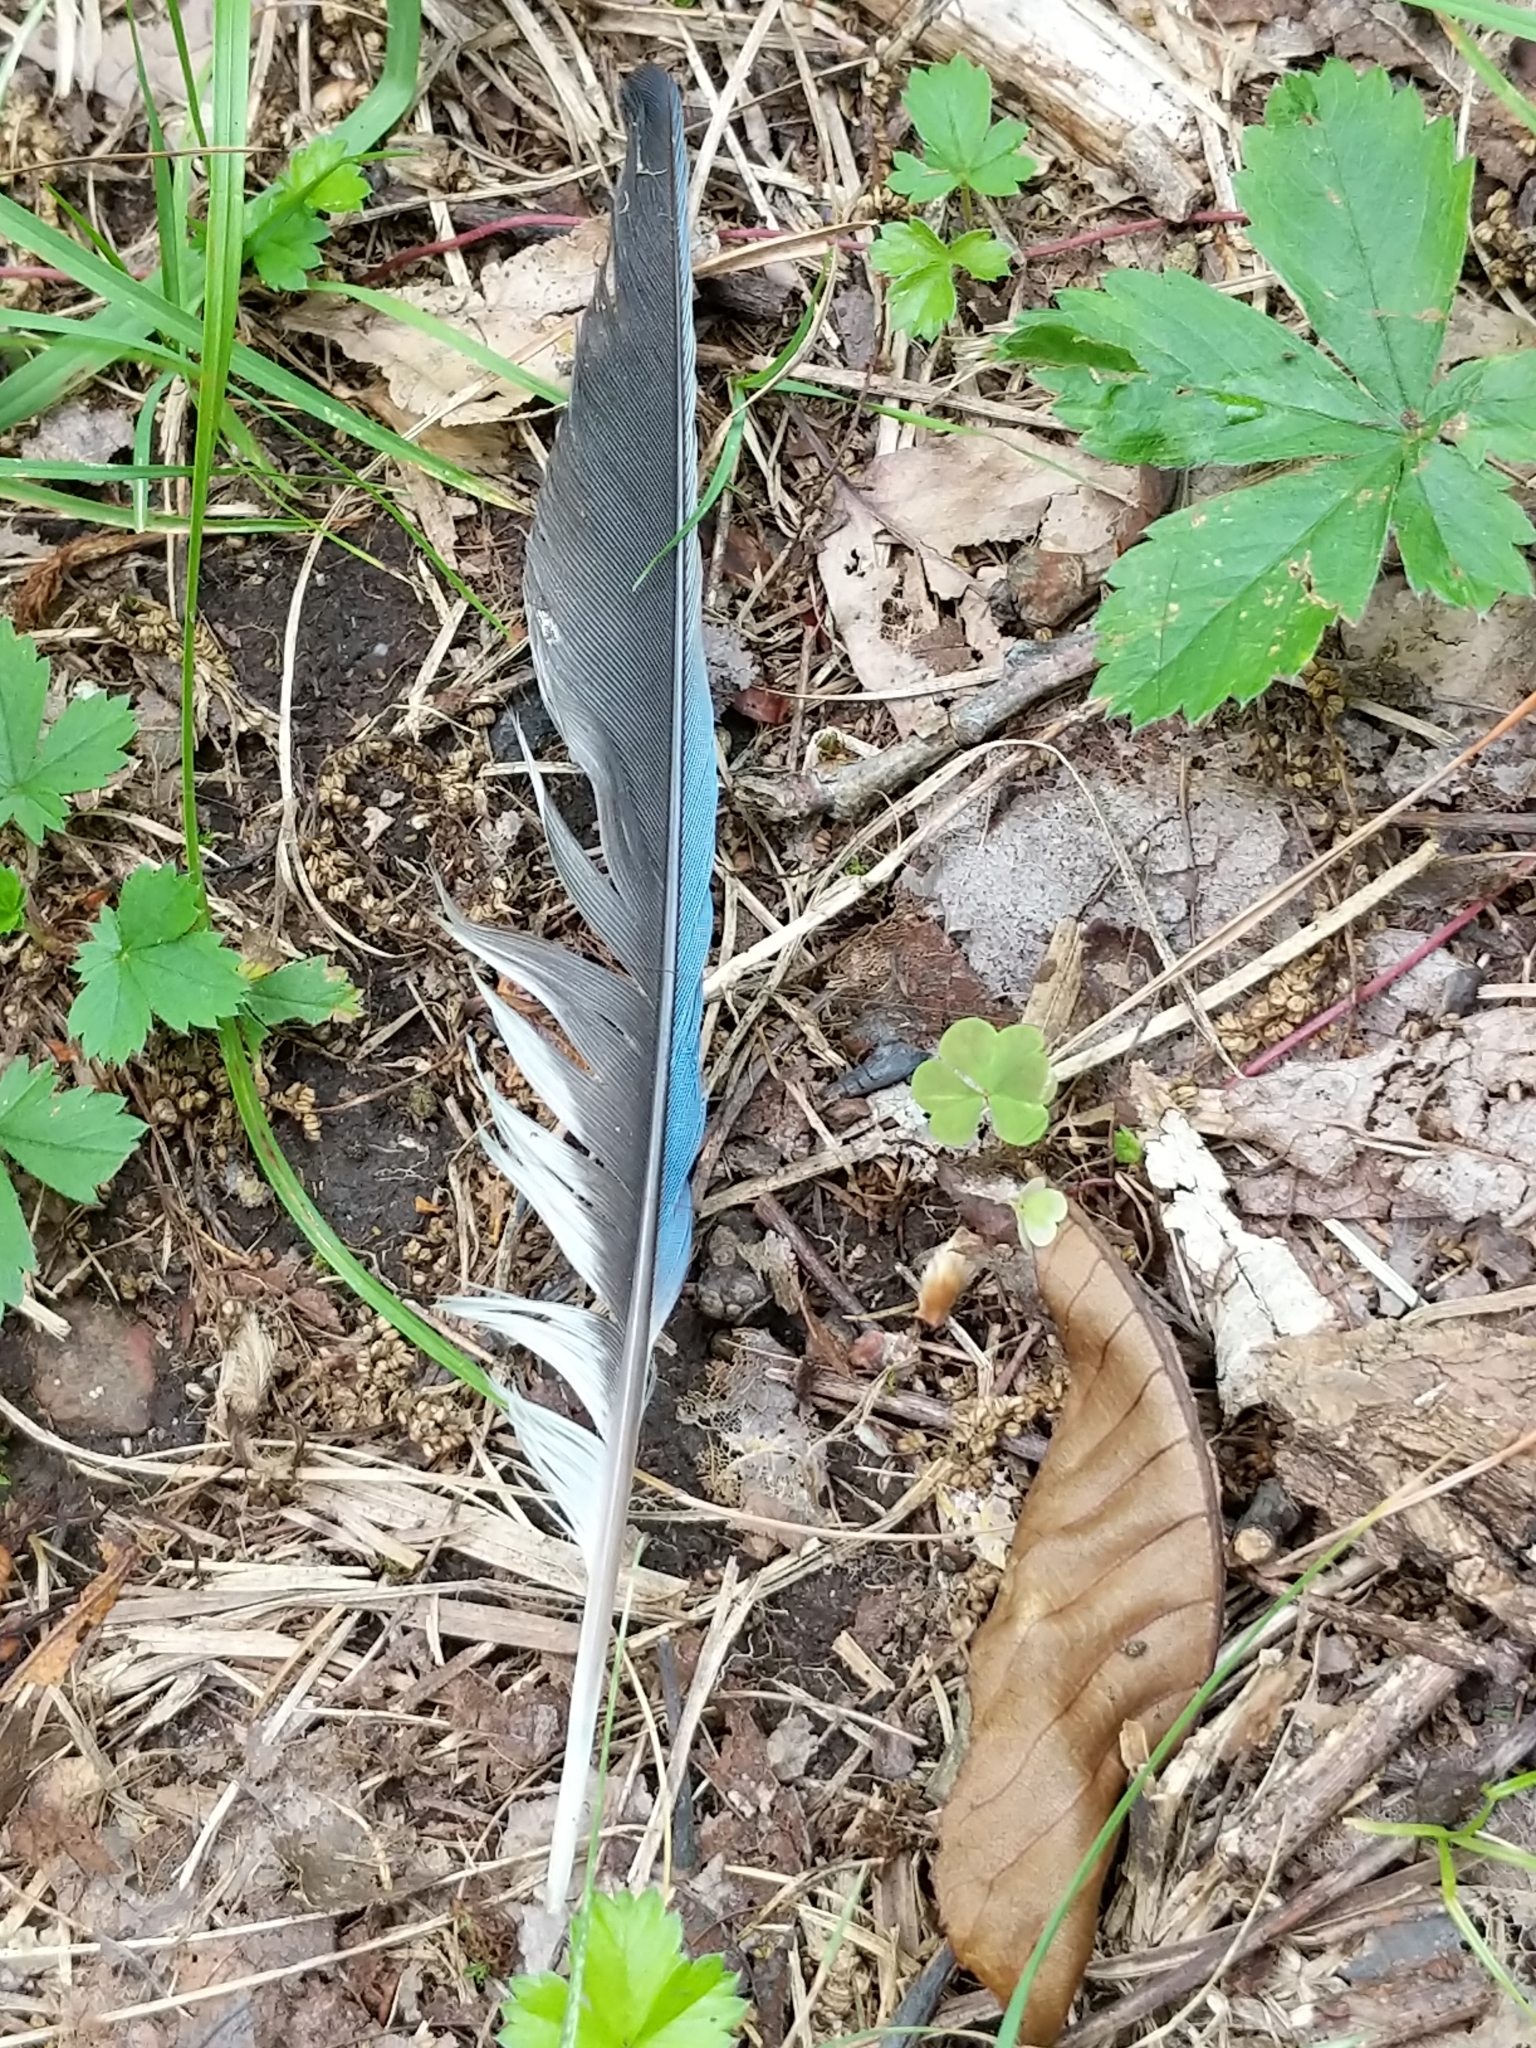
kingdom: Animalia
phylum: Chordata
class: Aves
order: Passeriformes
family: Corvidae
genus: Cyanocitta
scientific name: Cyanocitta cristata
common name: Blue jay
